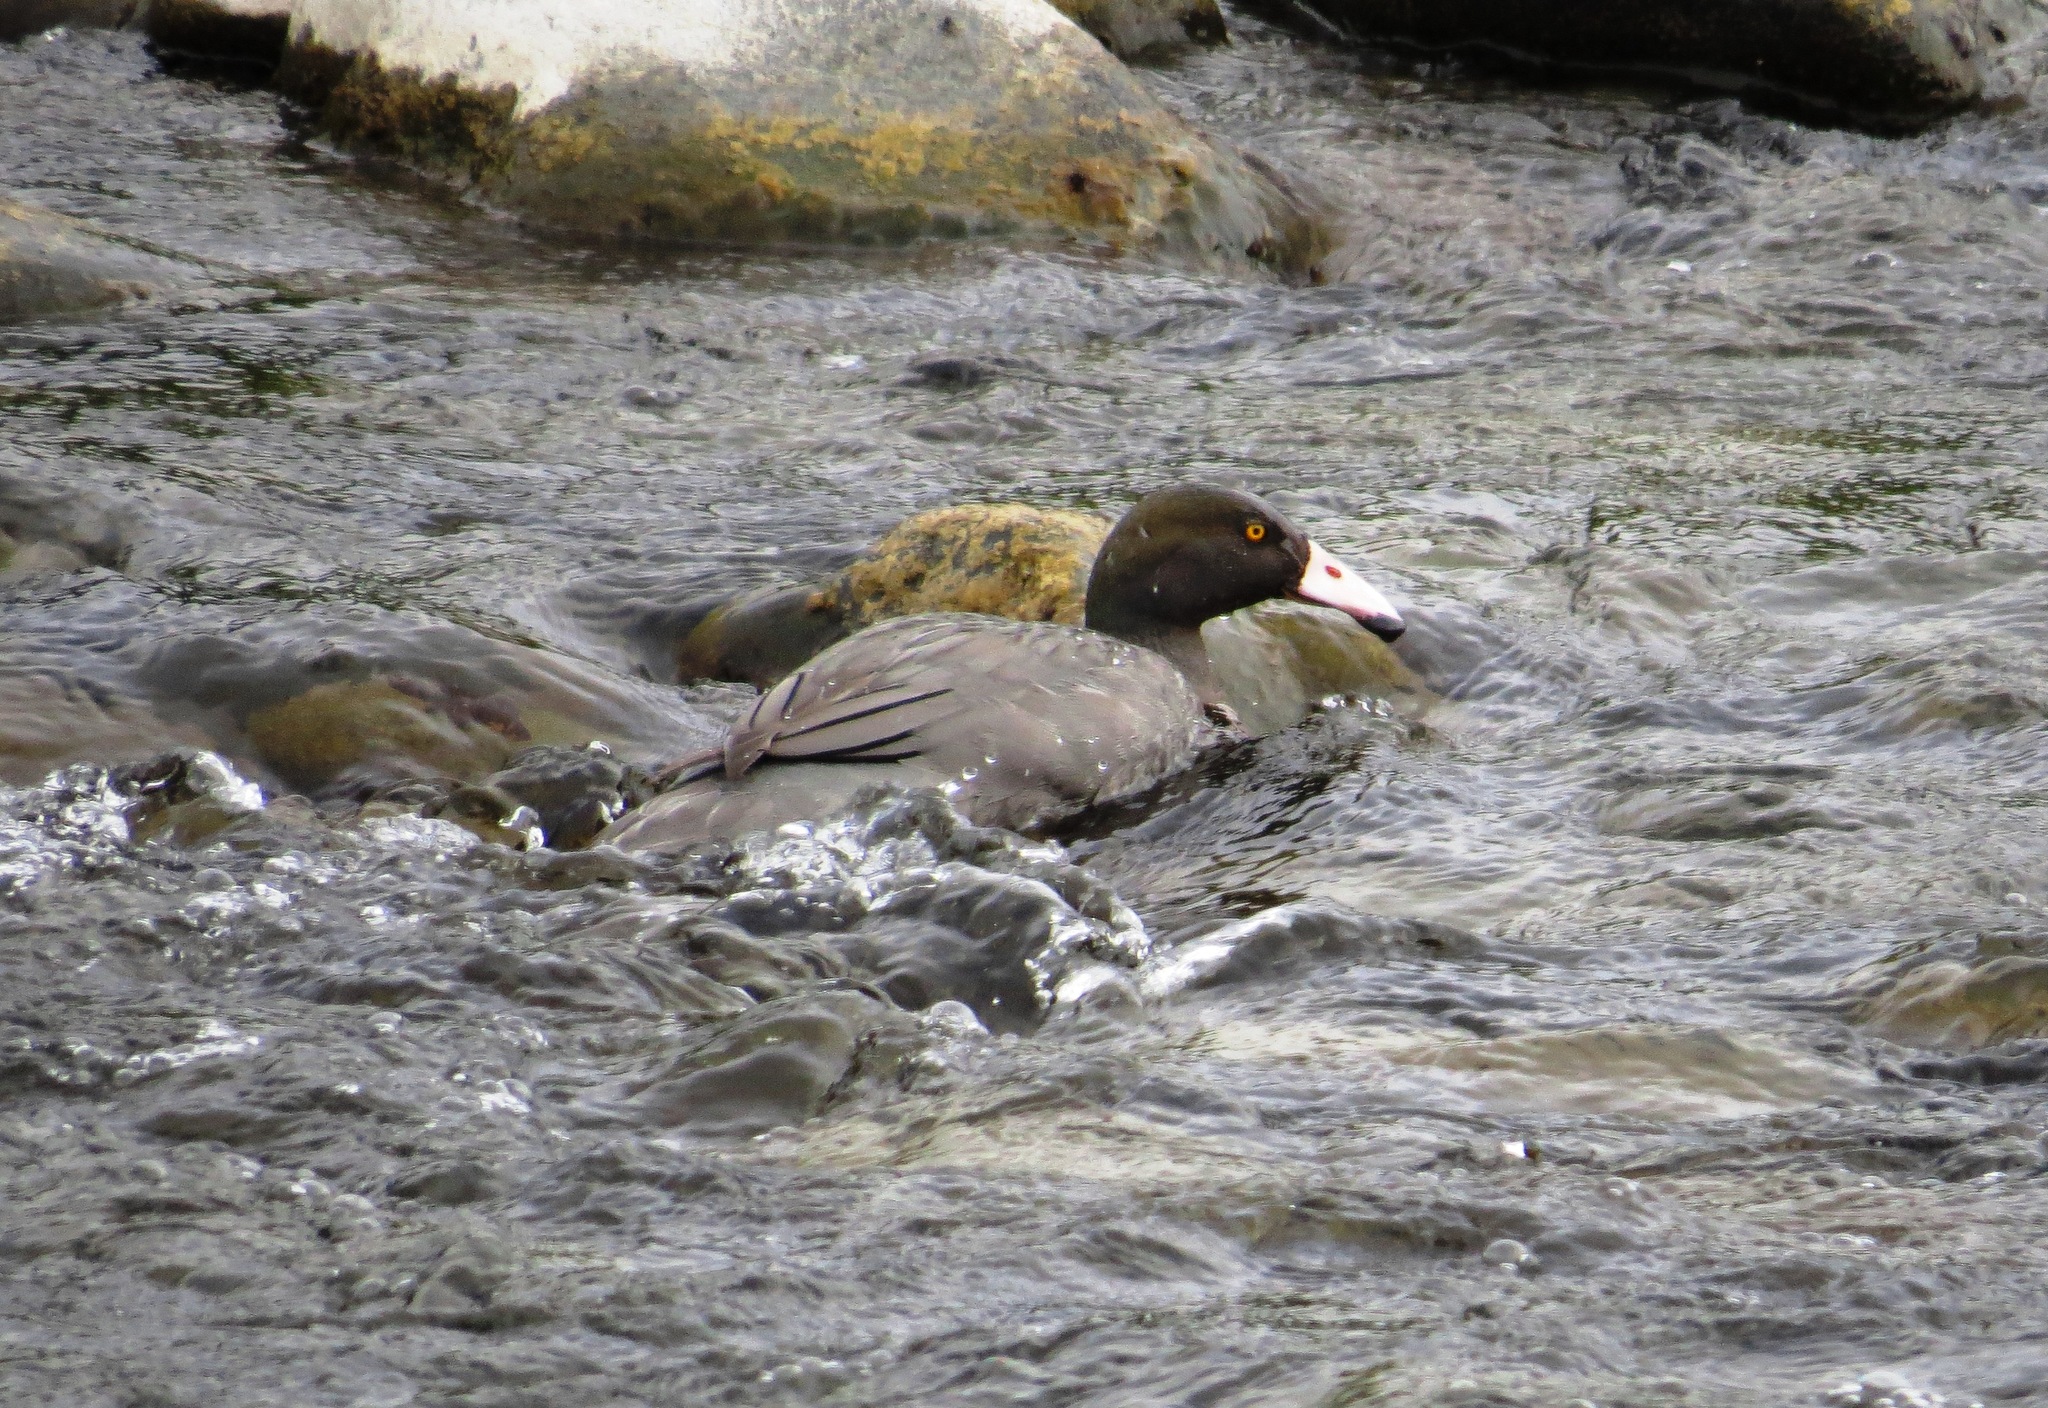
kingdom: Animalia
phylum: Chordata
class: Aves
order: Anseriformes
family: Anatidae
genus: Hymenolaimus
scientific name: Hymenolaimus malacorhynchos
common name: Blue duck
